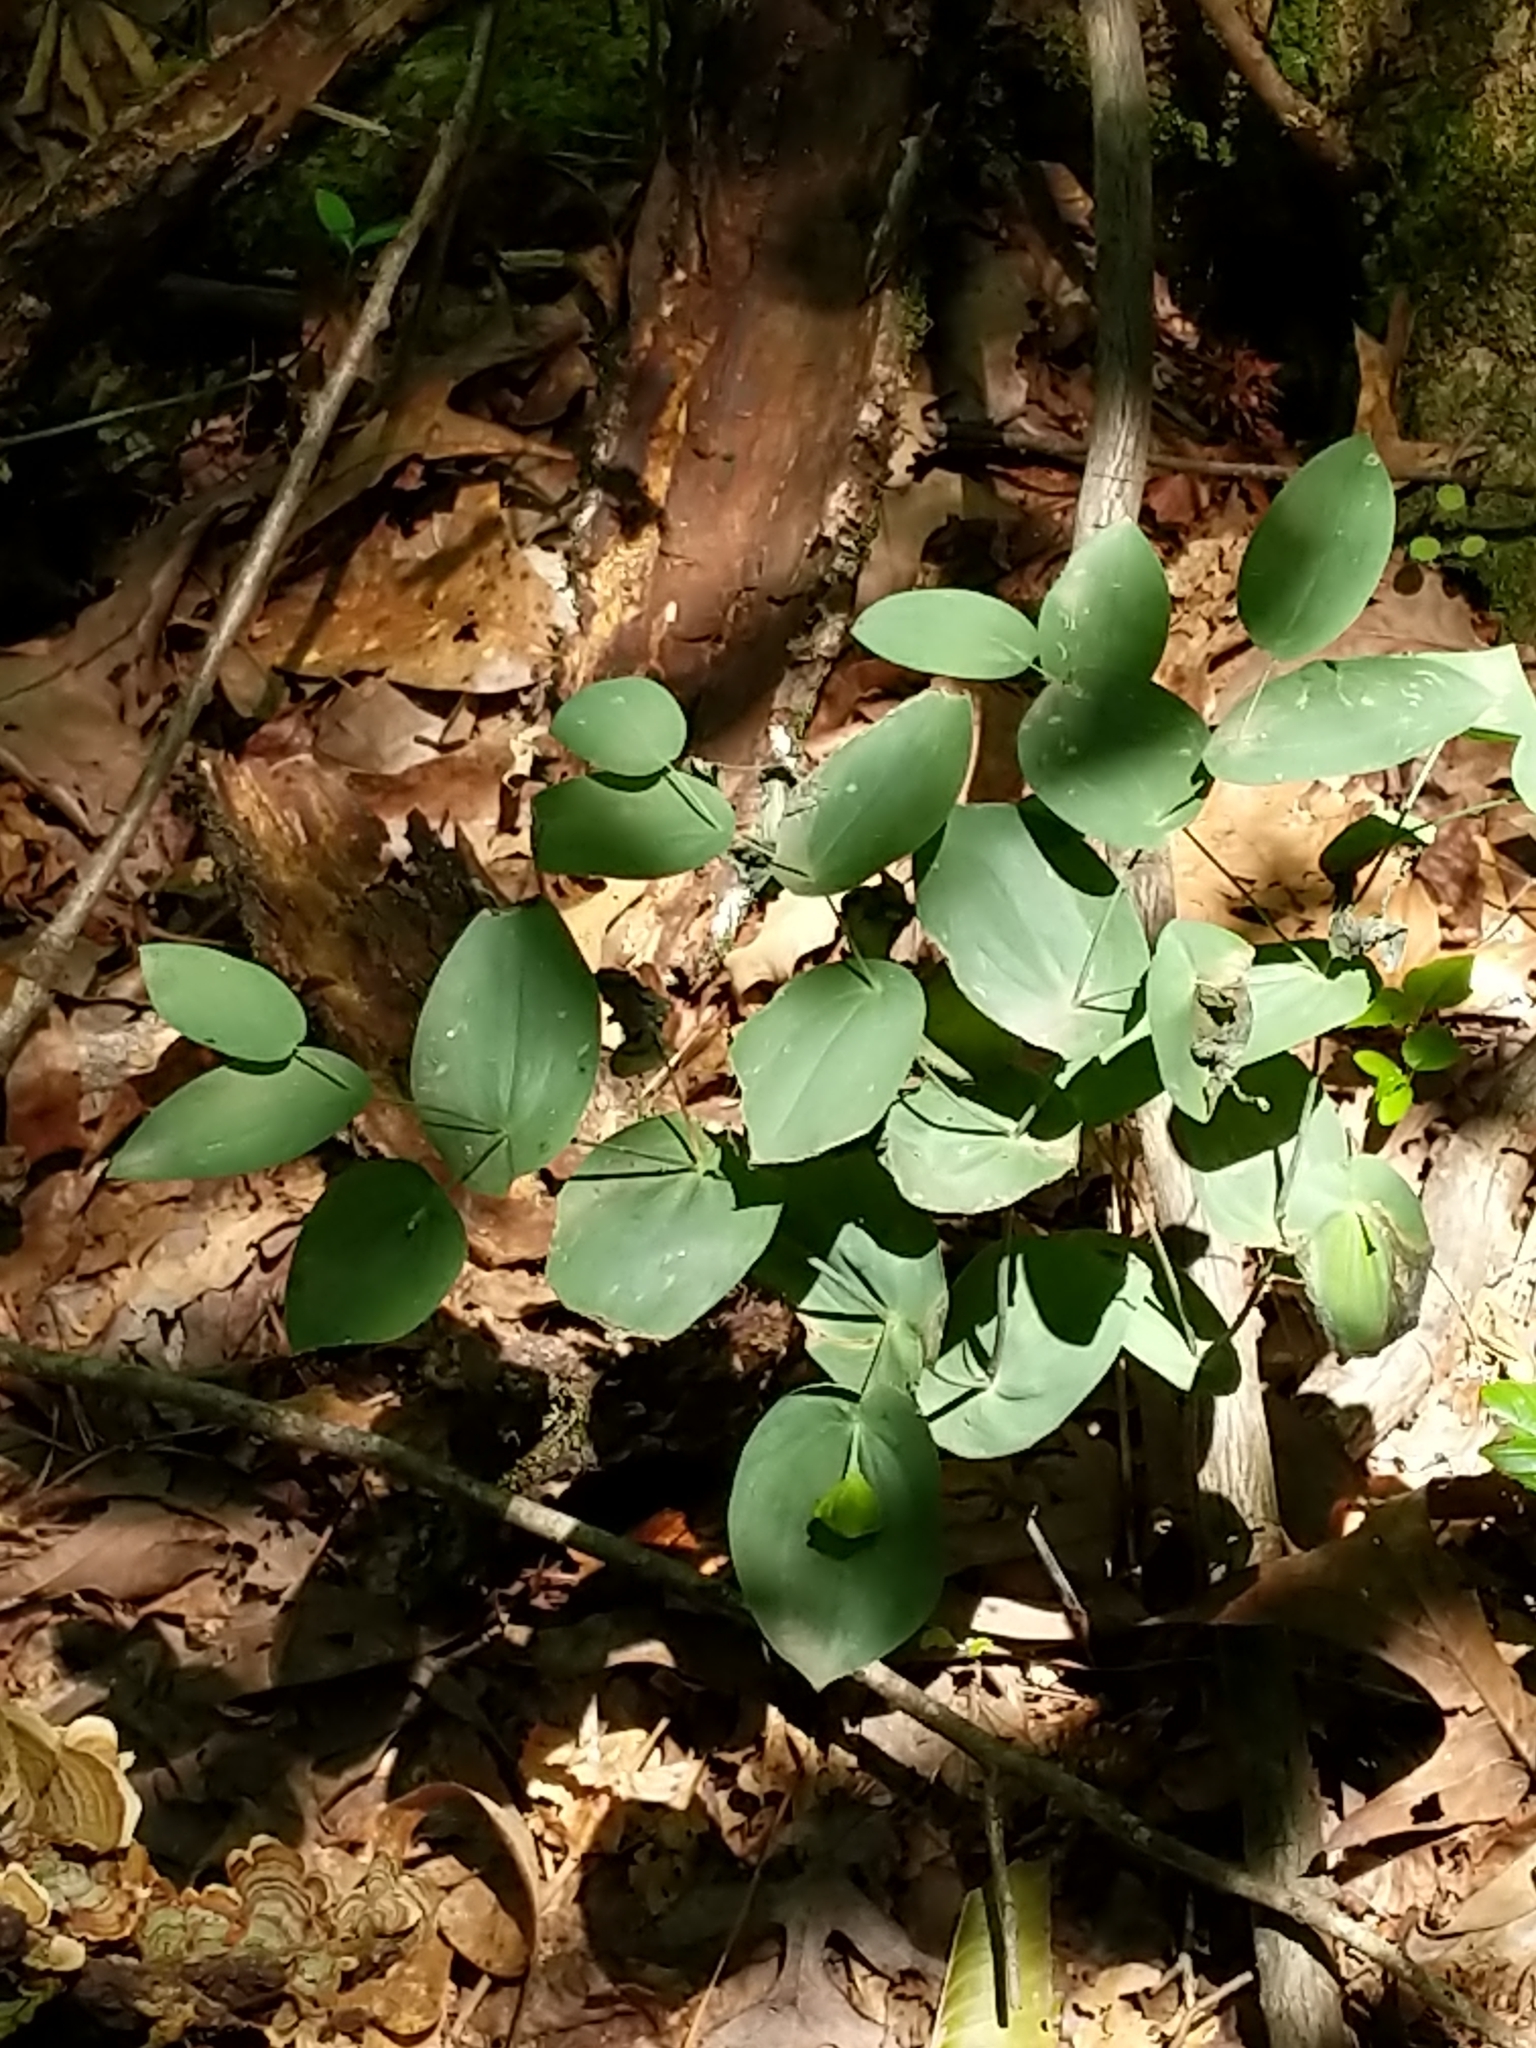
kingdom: Plantae
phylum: Tracheophyta
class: Liliopsida
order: Liliales
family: Colchicaceae
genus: Uvularia
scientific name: Uvularia perfoliata
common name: Perfoliate bellwort
